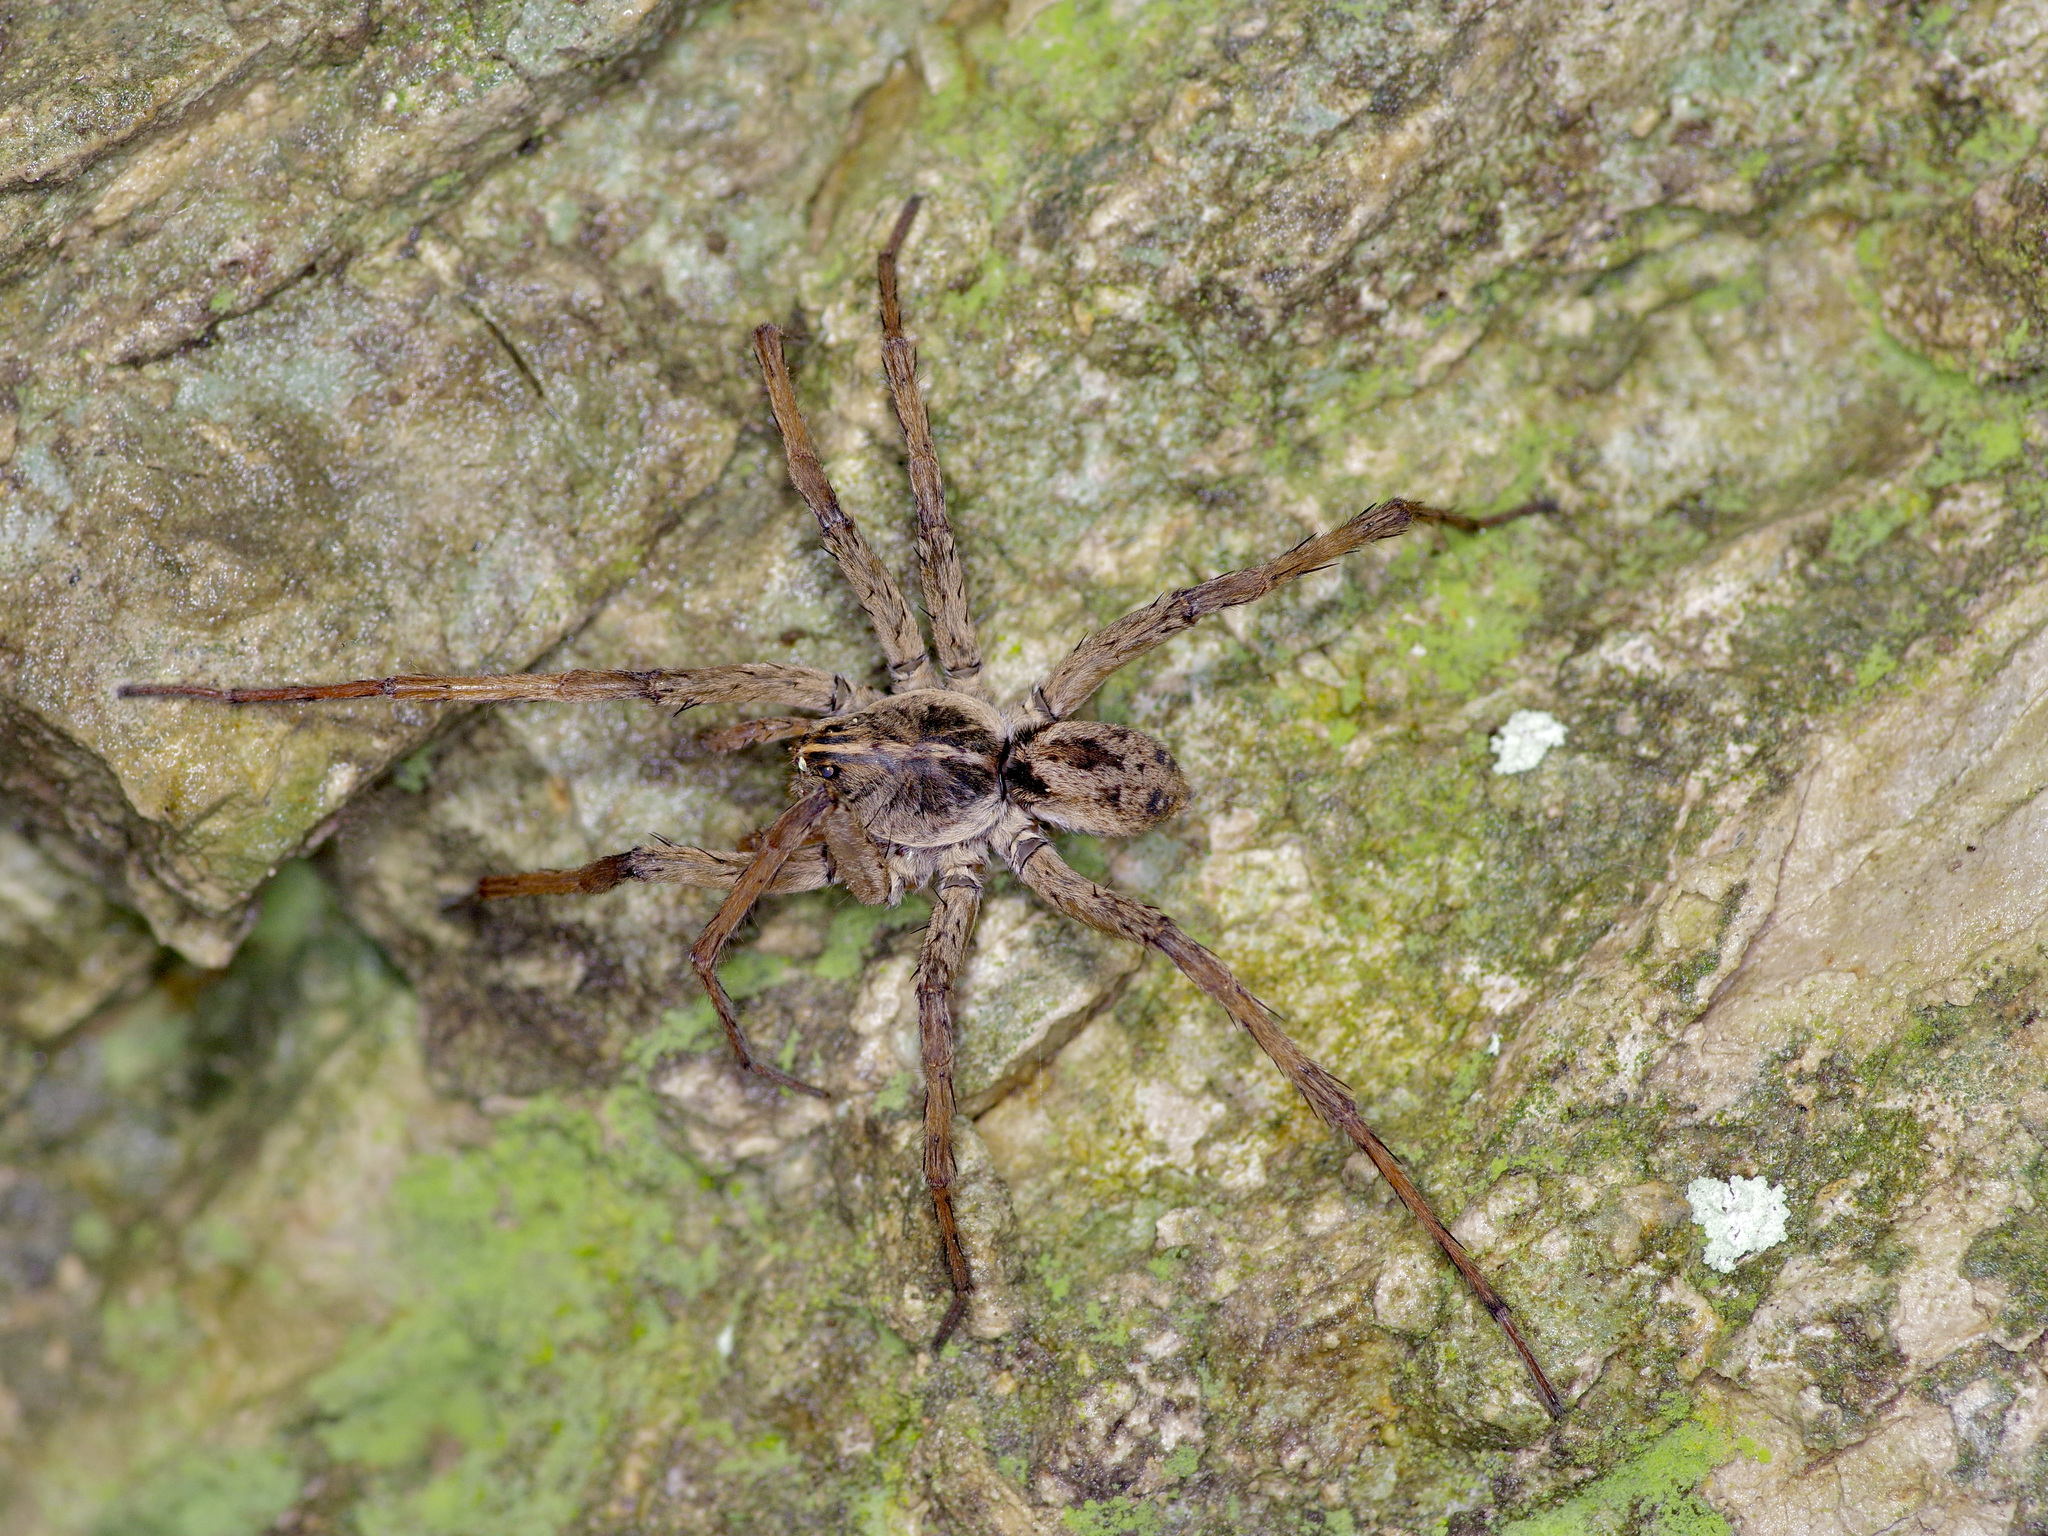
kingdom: Animalia
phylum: Arthropoda
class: Arachnida
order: Araneae
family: Lycosidae
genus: Tigrosa
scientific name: Tigrosa georgicola
